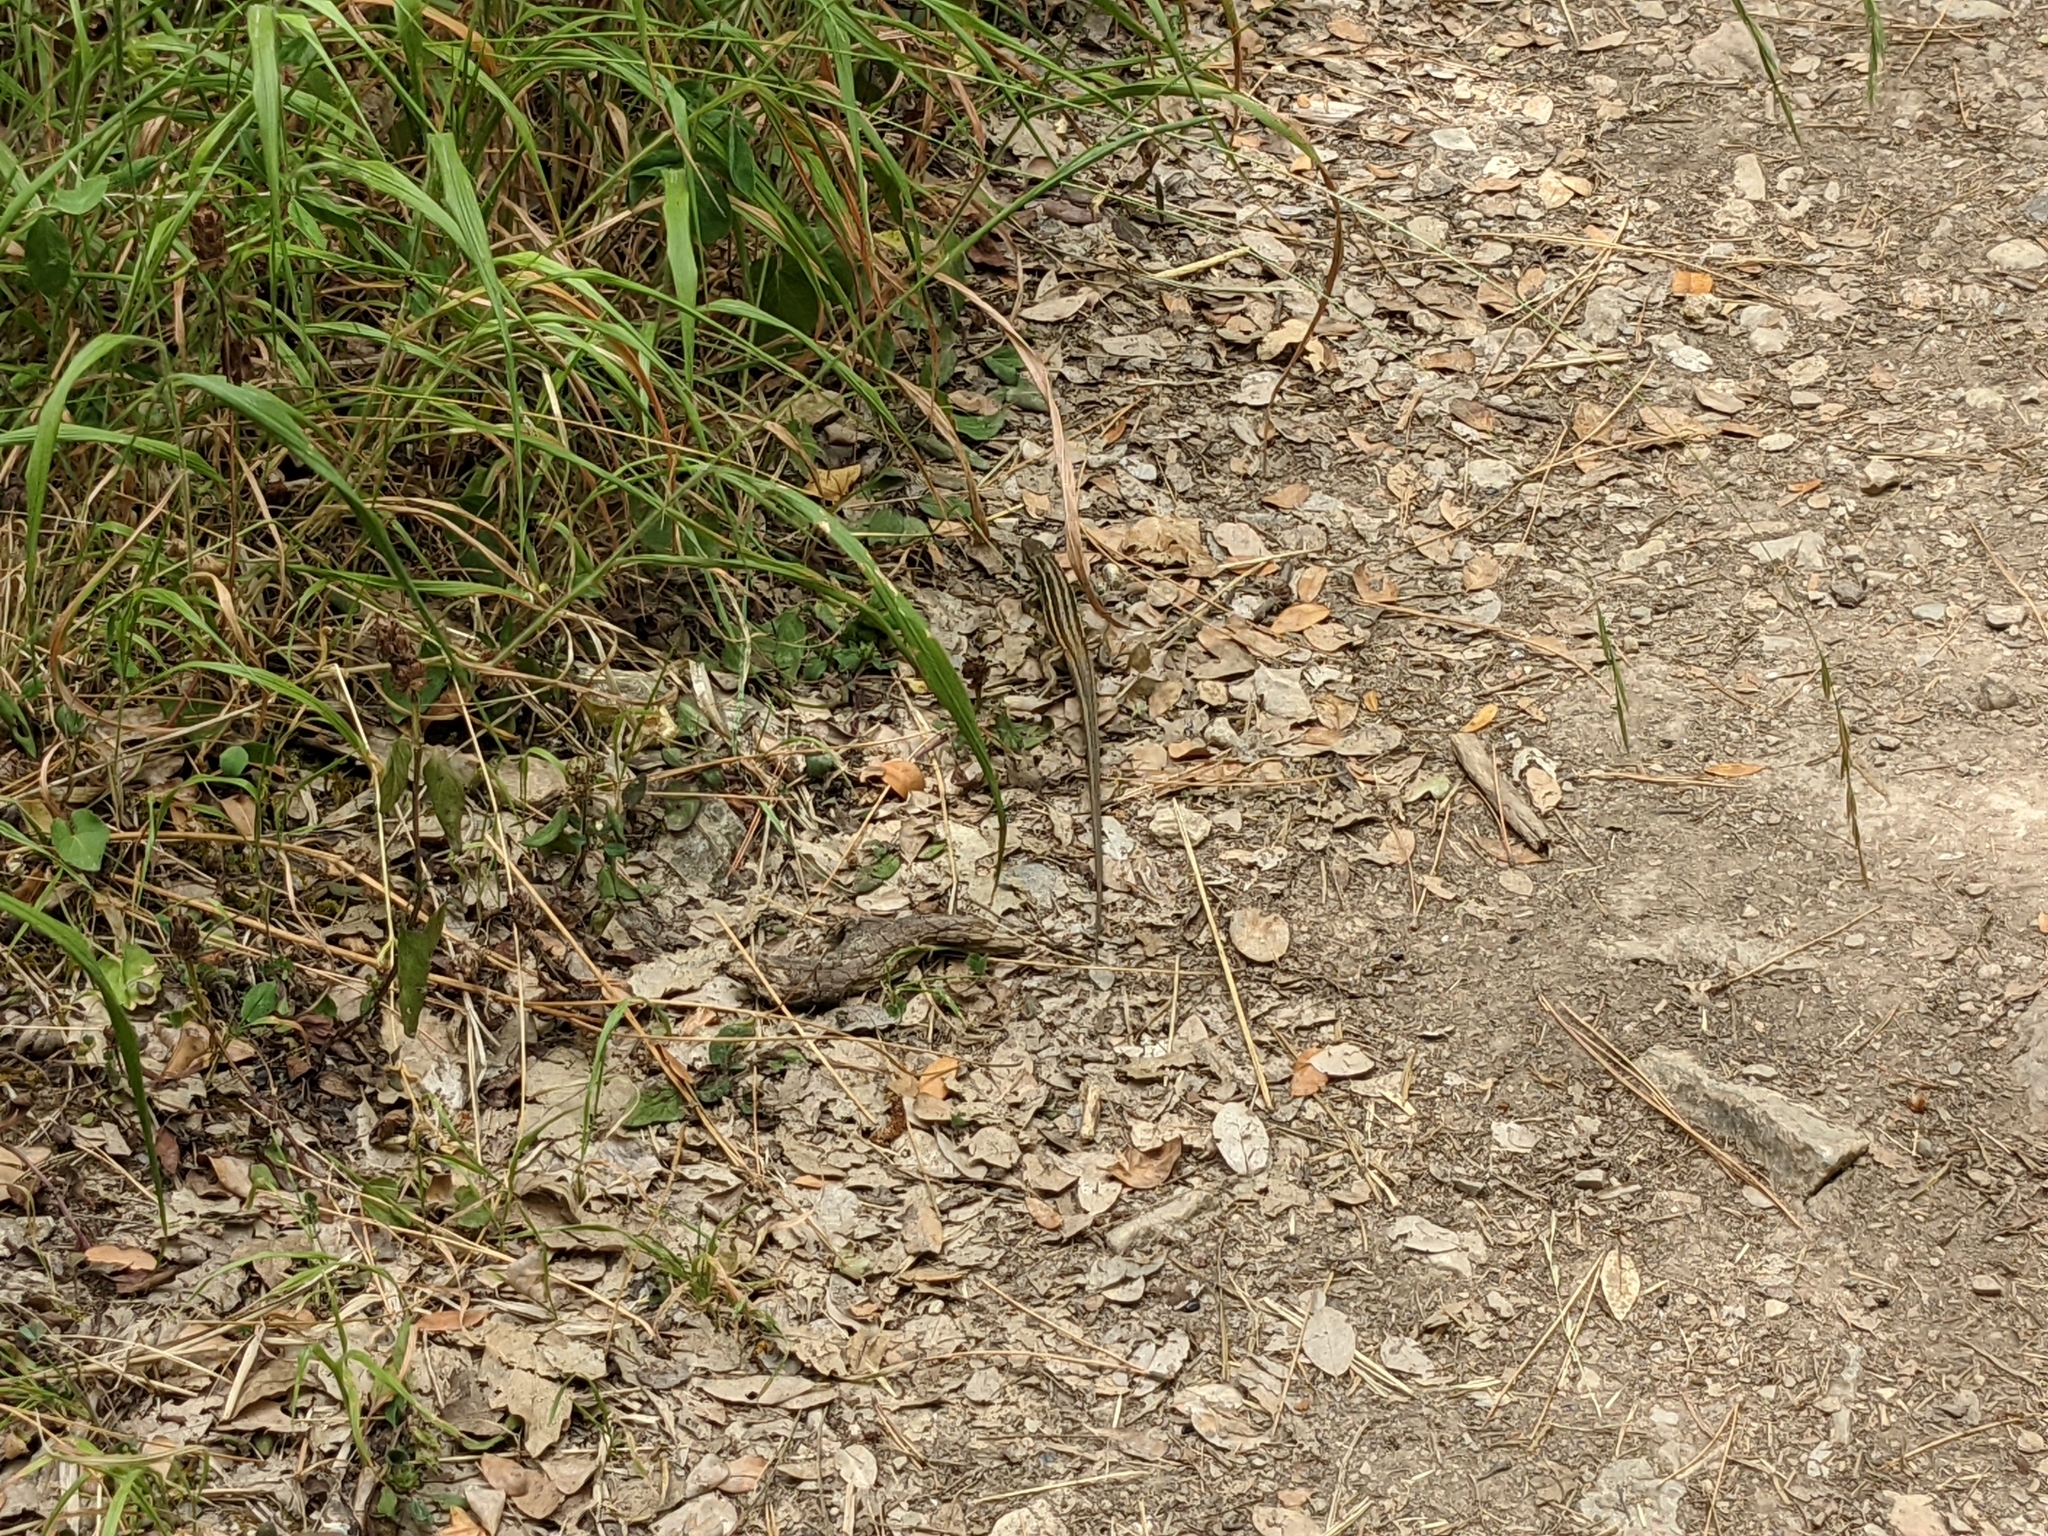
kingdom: Animalia
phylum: Chordata
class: Squamata
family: Lacertidae
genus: Psammodromus
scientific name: Psammodromus algirus
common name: Algerian psammodromus
